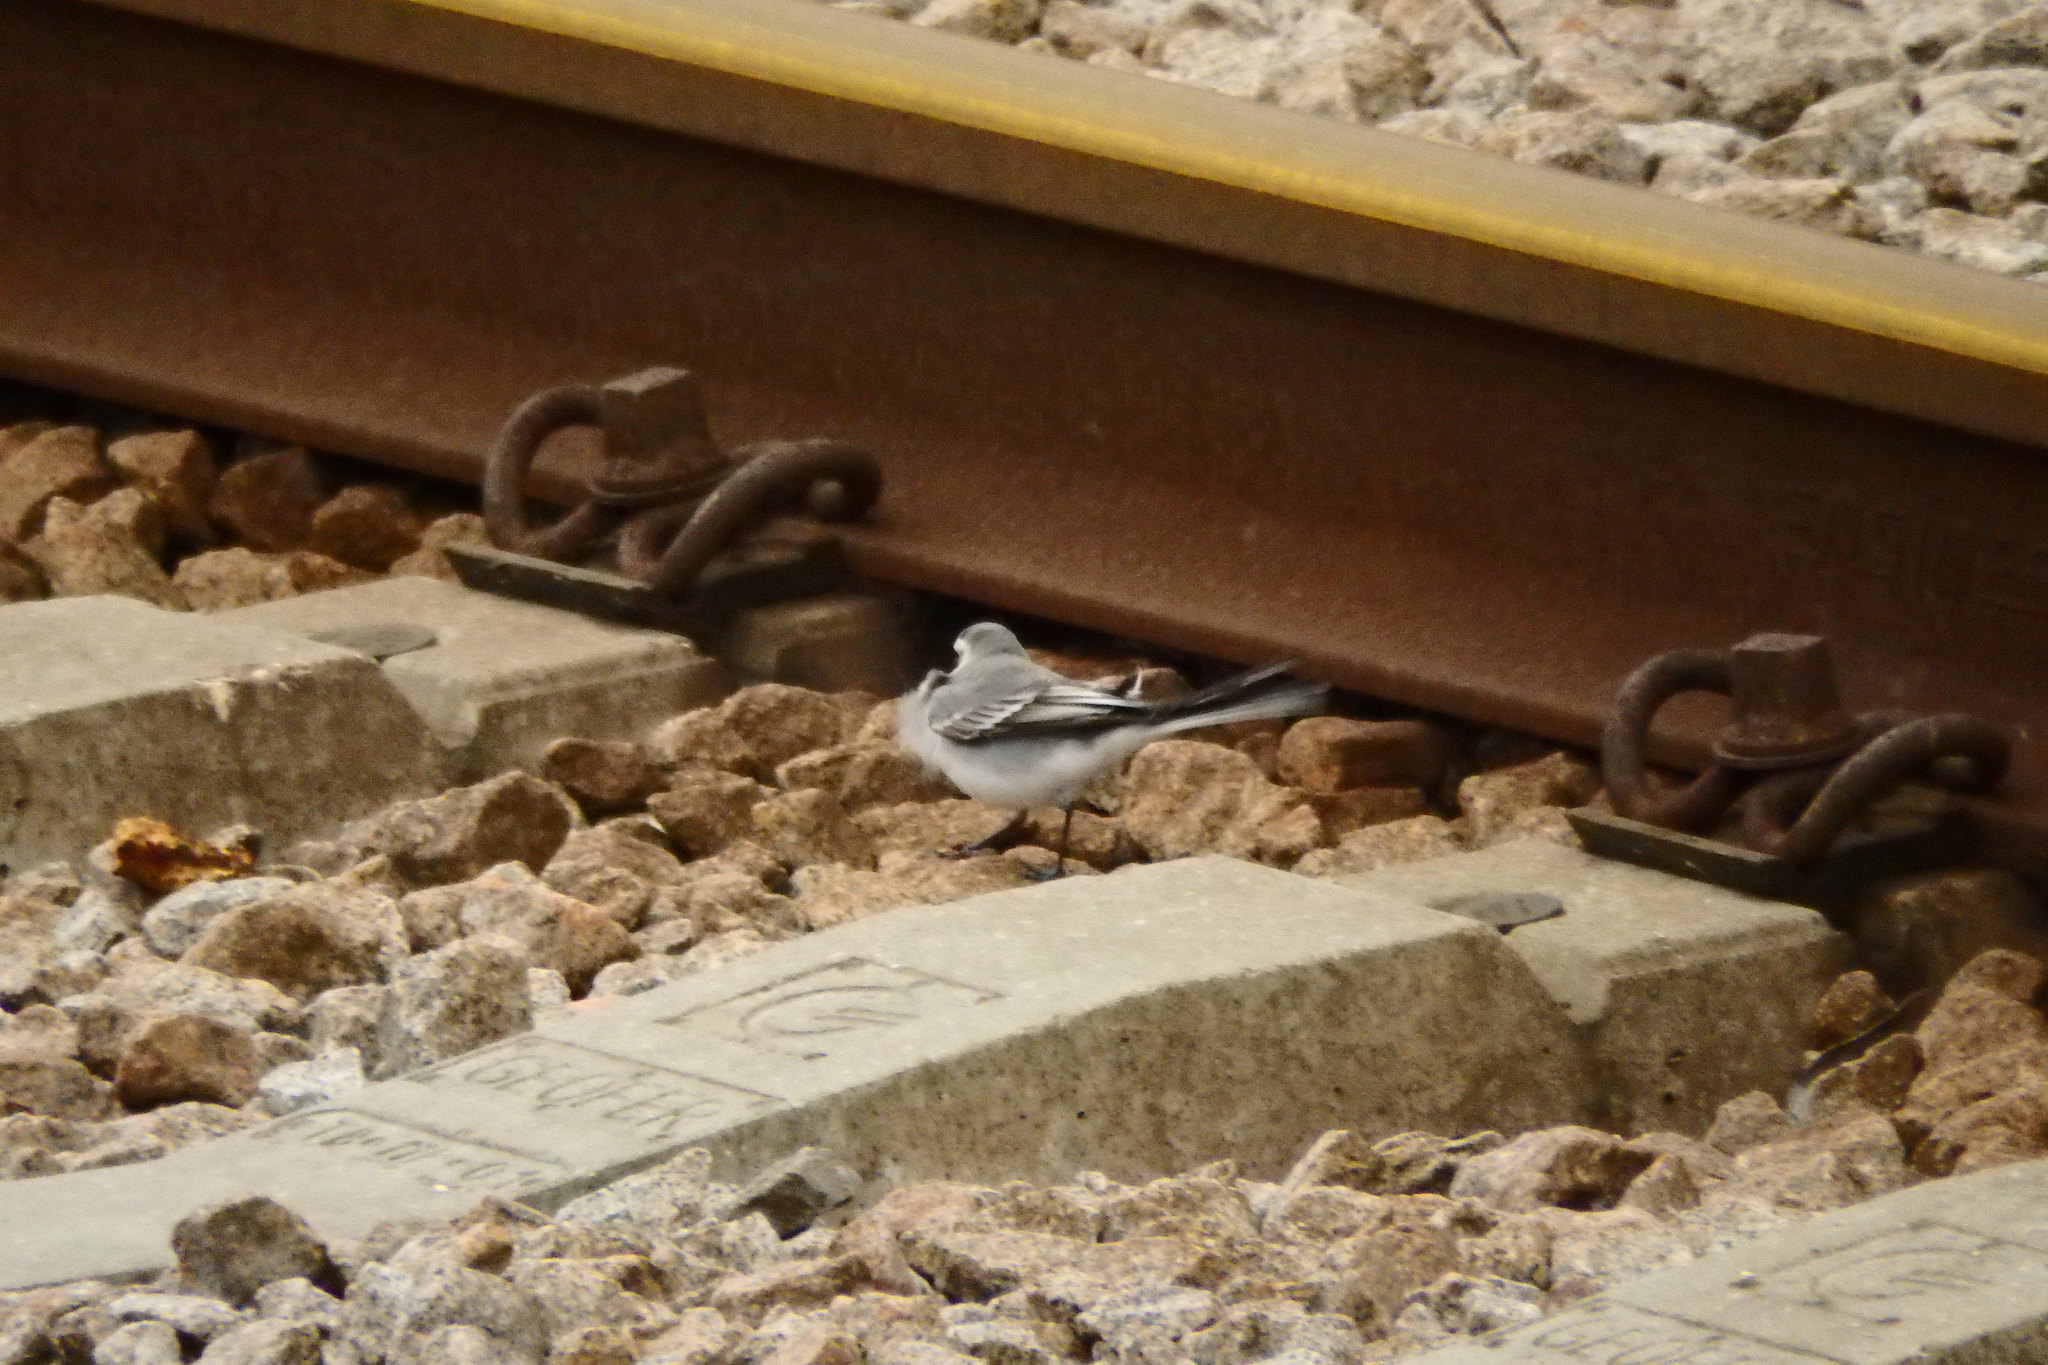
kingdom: Animalia
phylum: Chordata
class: Aves
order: Passeriformes
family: Motacillidae
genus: Motacilla
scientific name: Motacilla alba
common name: White wagtail
